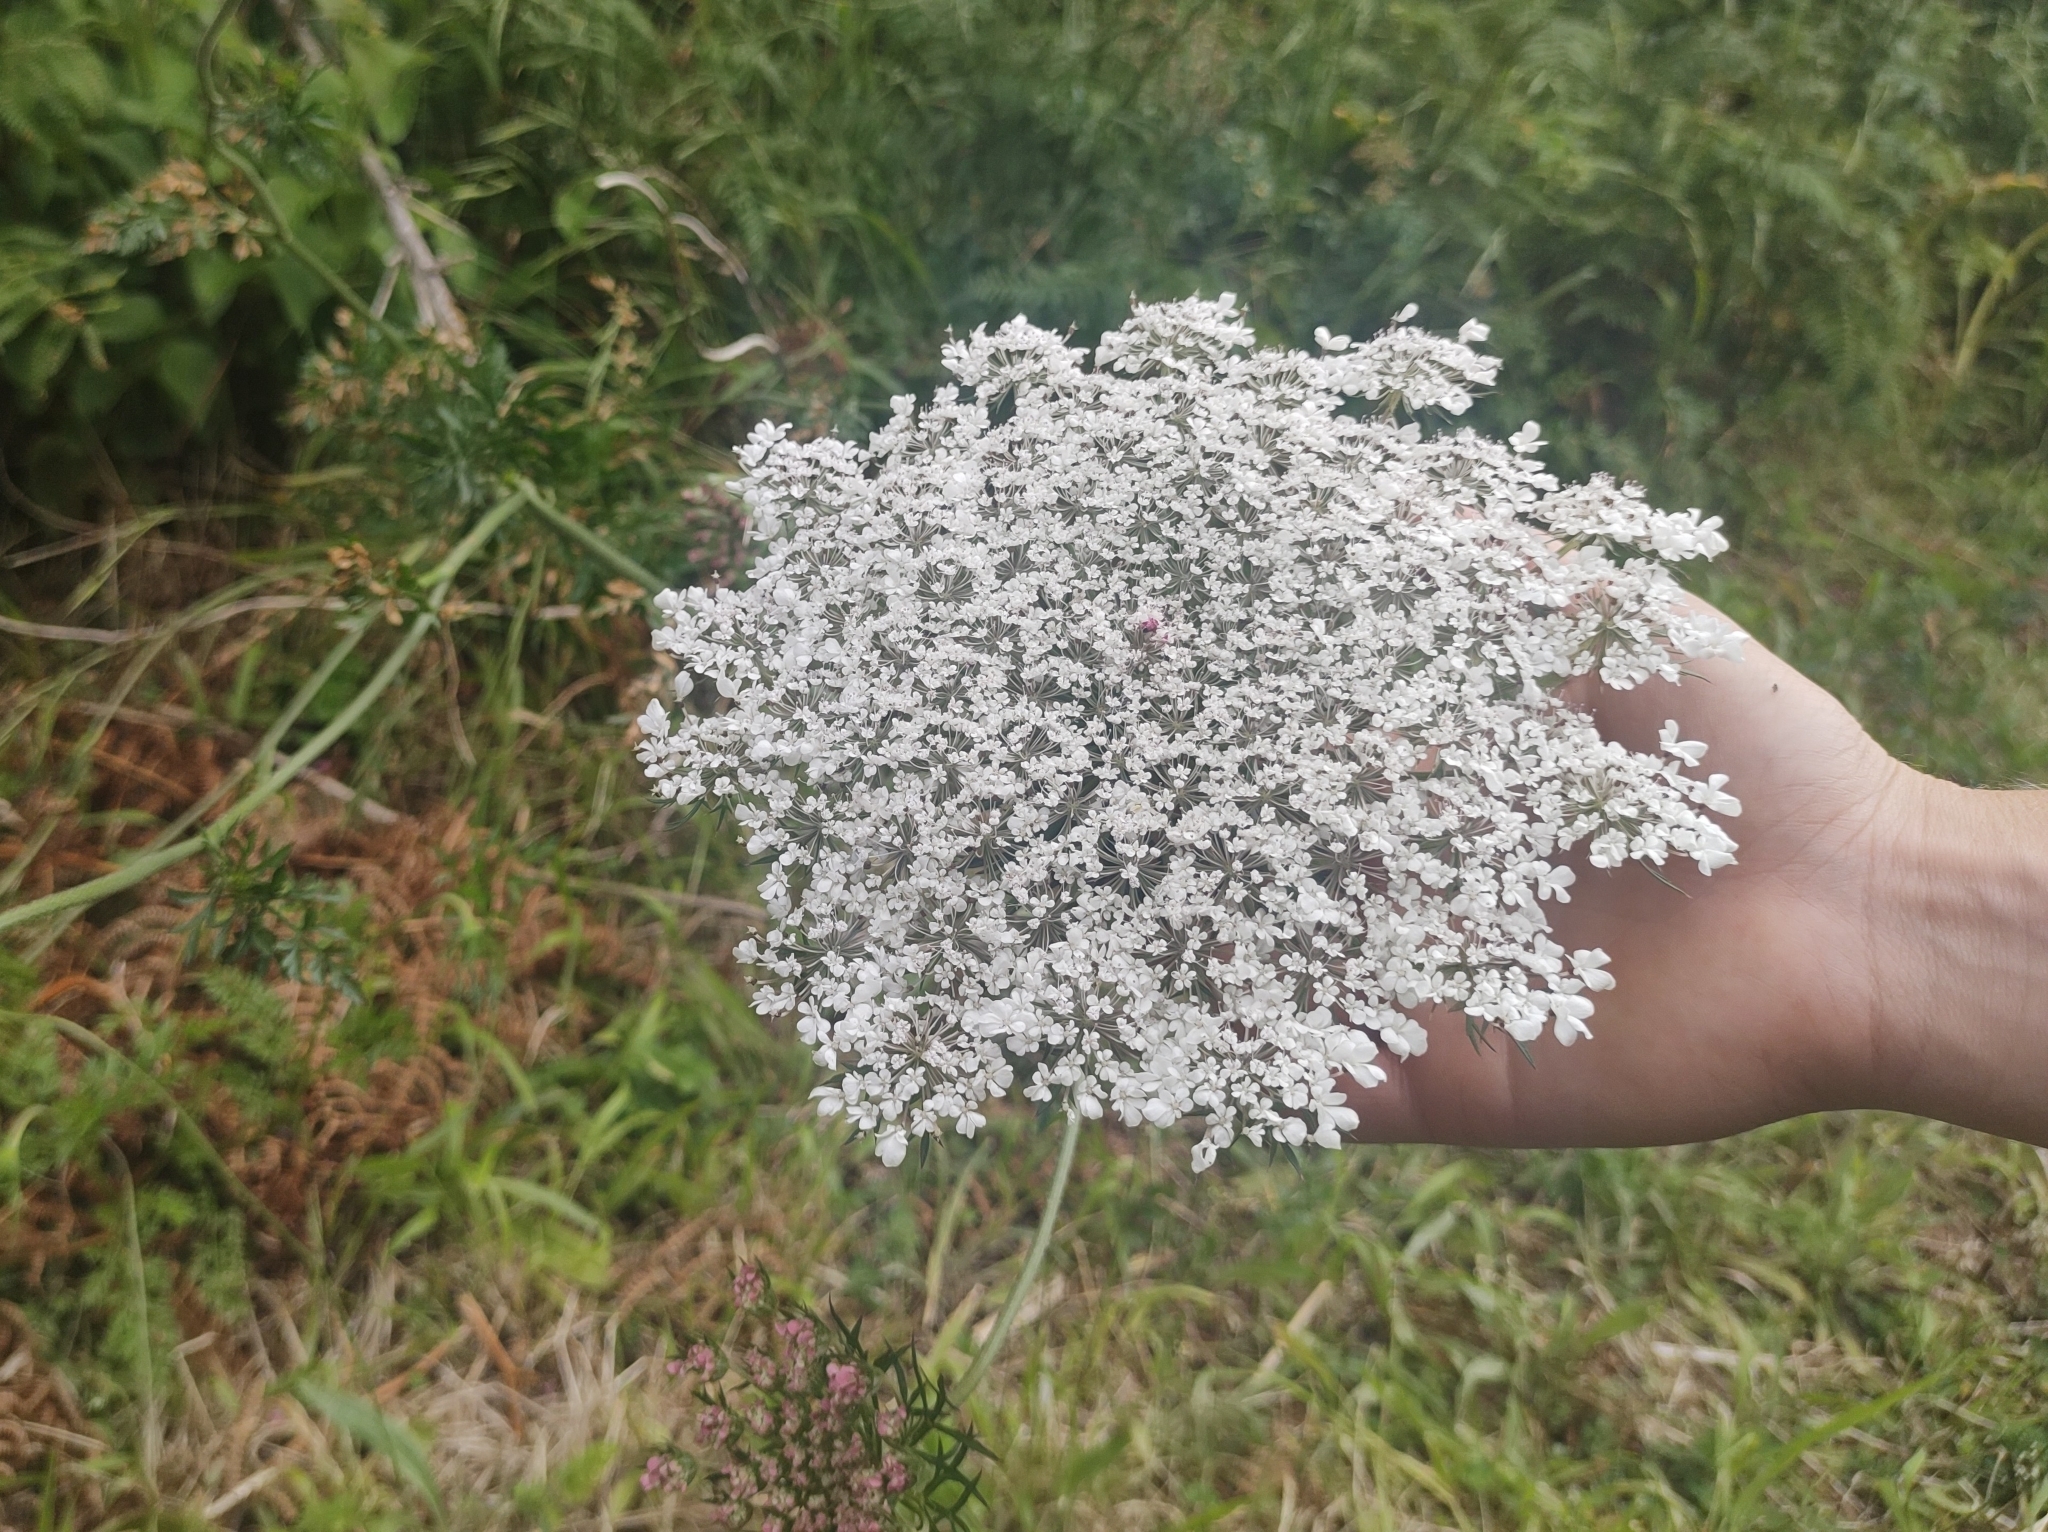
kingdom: Plantae
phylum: Tracheophyta
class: Magnoliopsida
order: Apiales
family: Apiaceae
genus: Daucus
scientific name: Daucus carota
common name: Wild carrot
